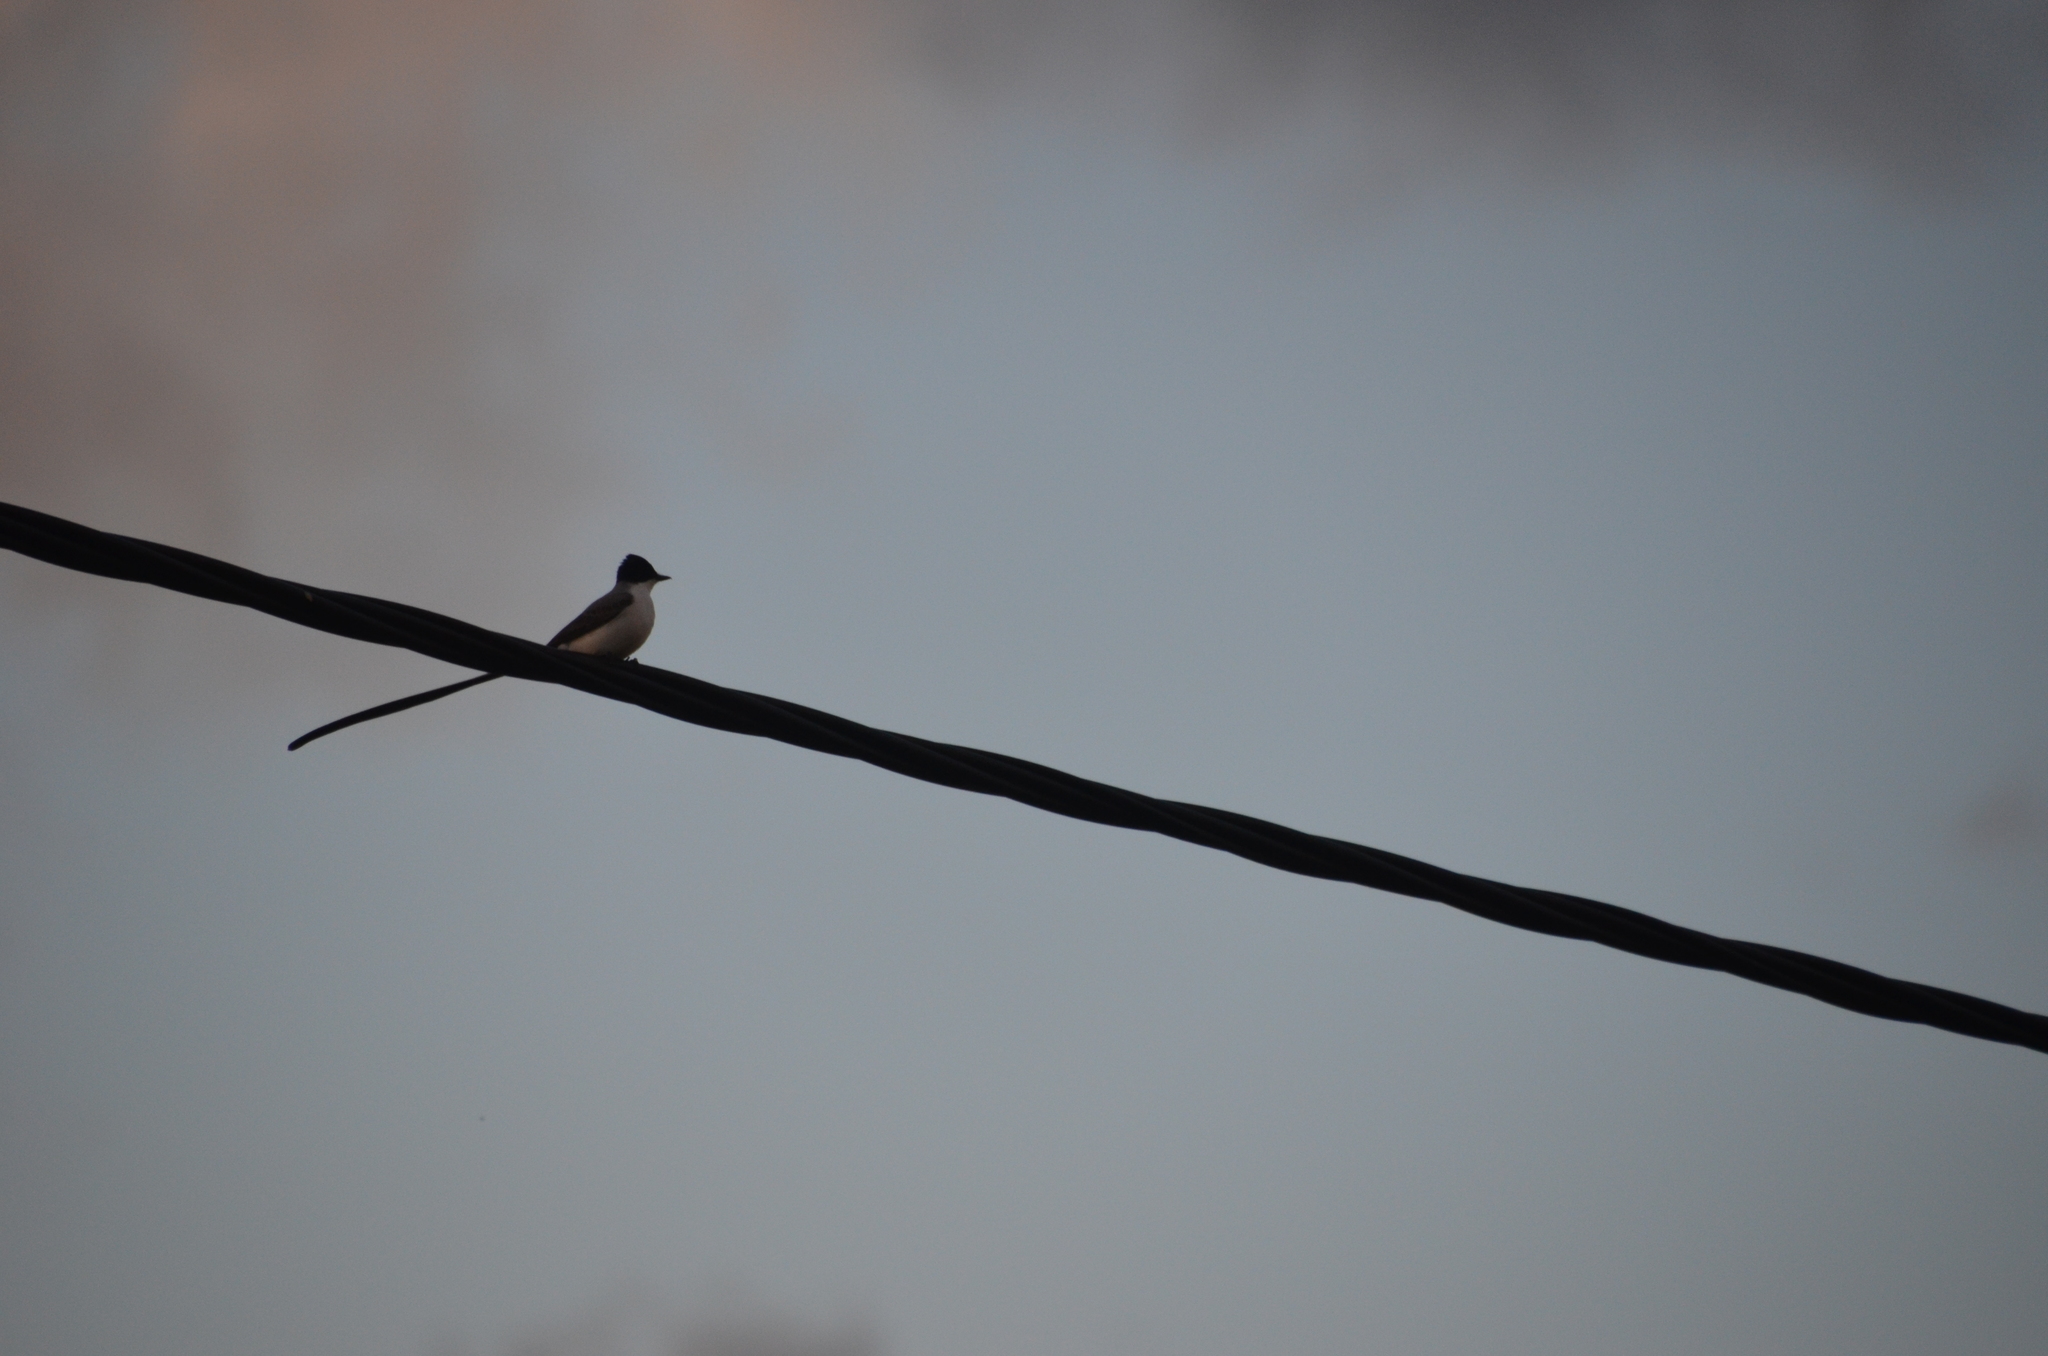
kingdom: Animalia
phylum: Chordata
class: Aves
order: Passeriformes
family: Tyrannidae
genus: Tyrannus
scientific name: Tyrannus savana
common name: Fork-tailed flycatcher
